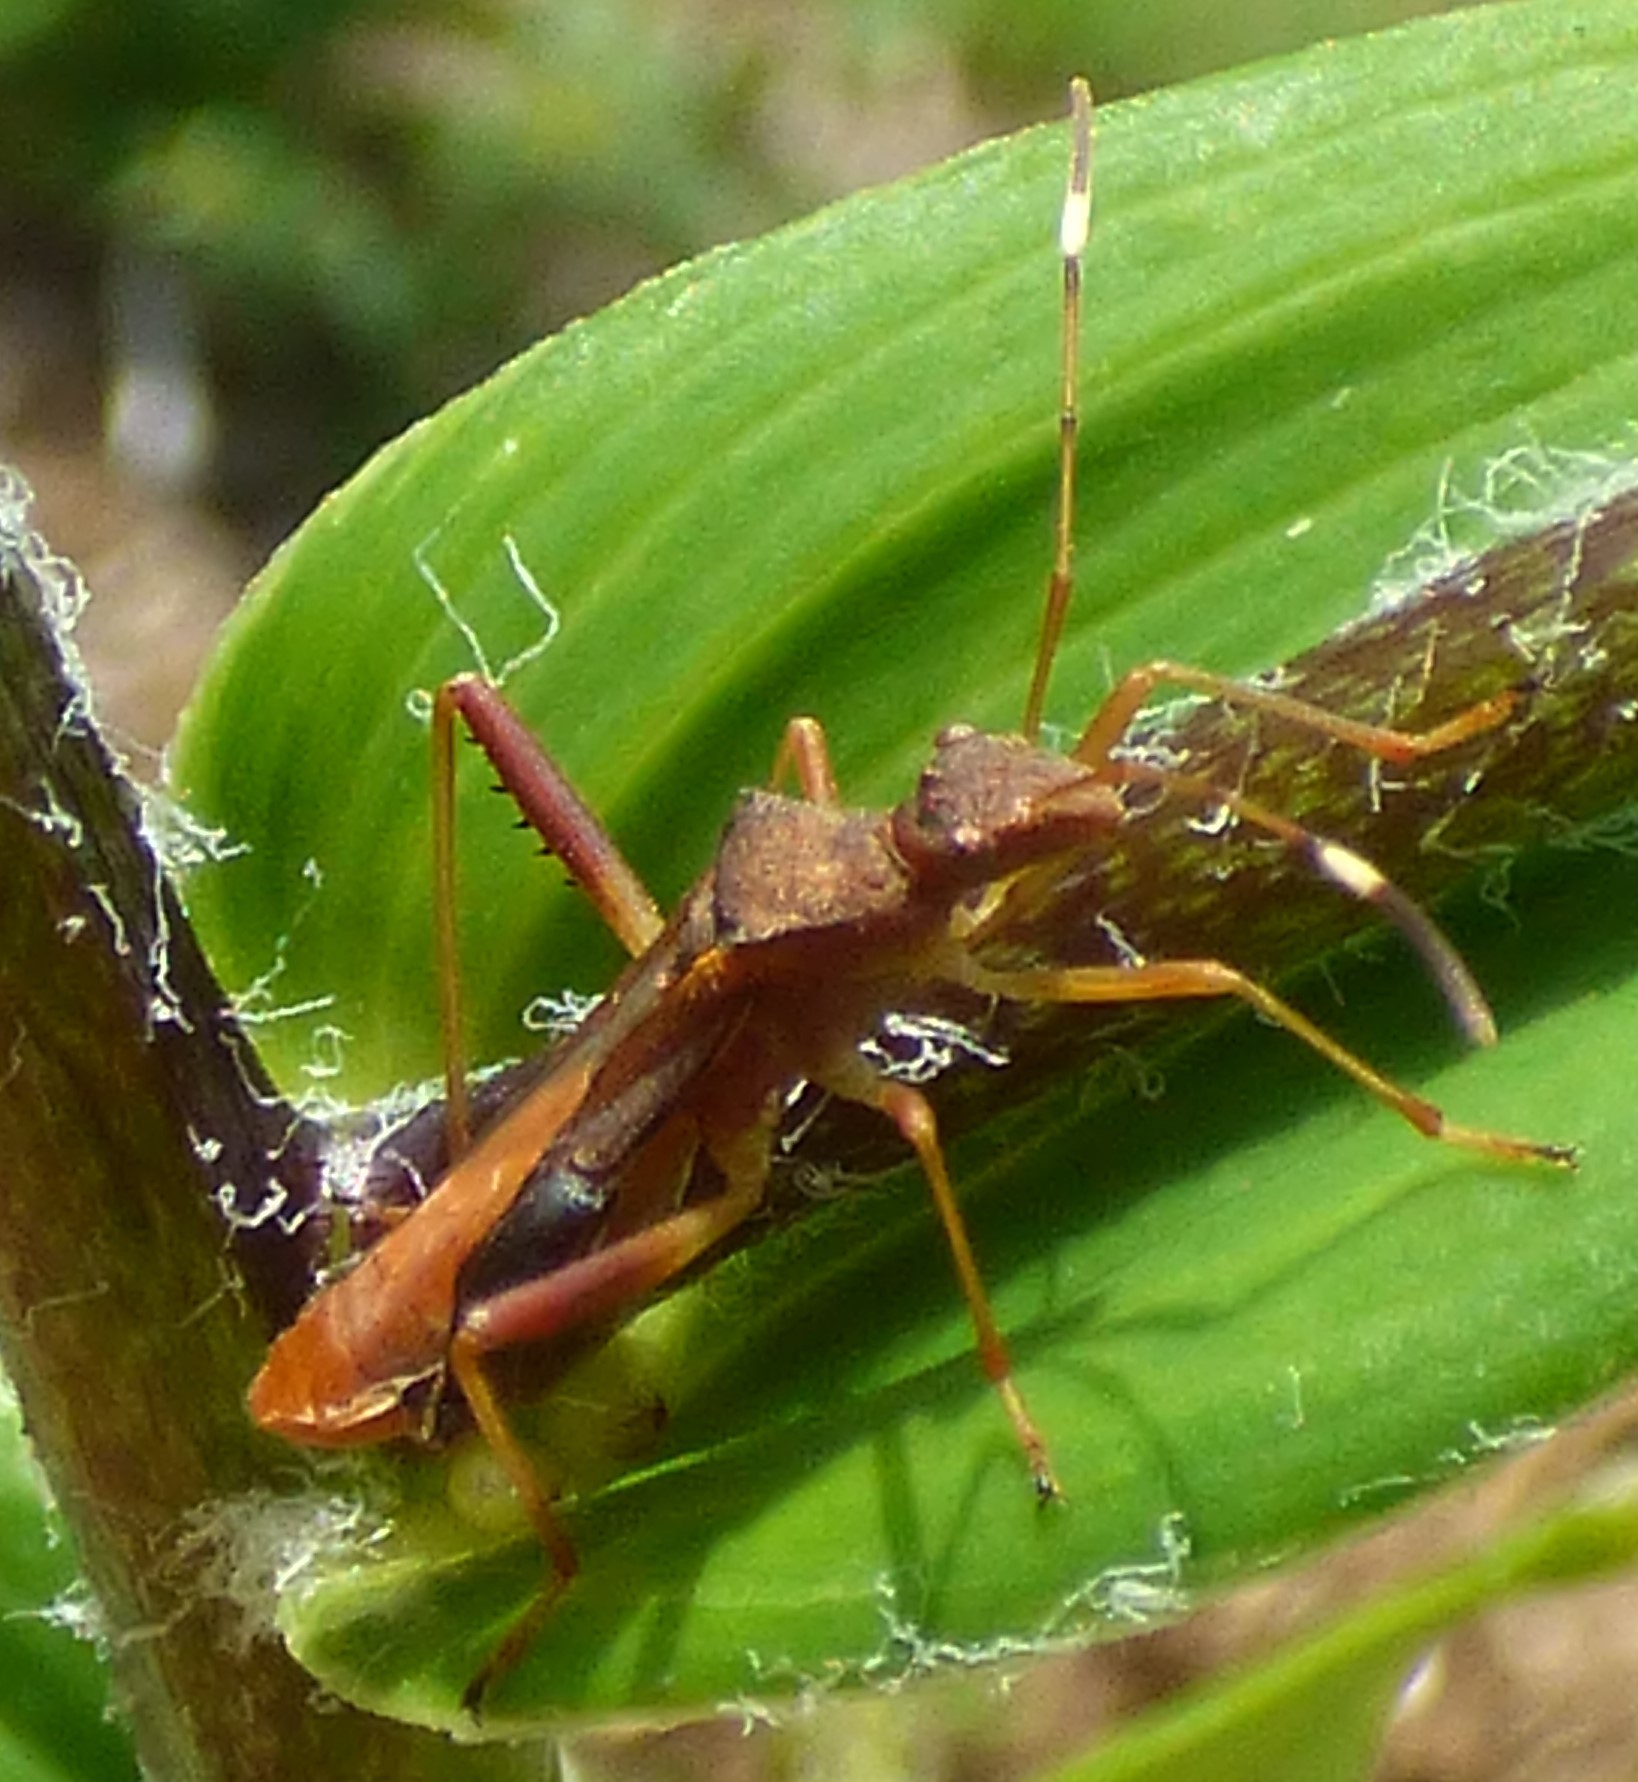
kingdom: Animalia
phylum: Arthropoda
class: Insecta
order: Hemiptera
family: Alydidae
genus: Megalotomus
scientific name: Megalotomus quinquespinosus
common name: Lupine bug
